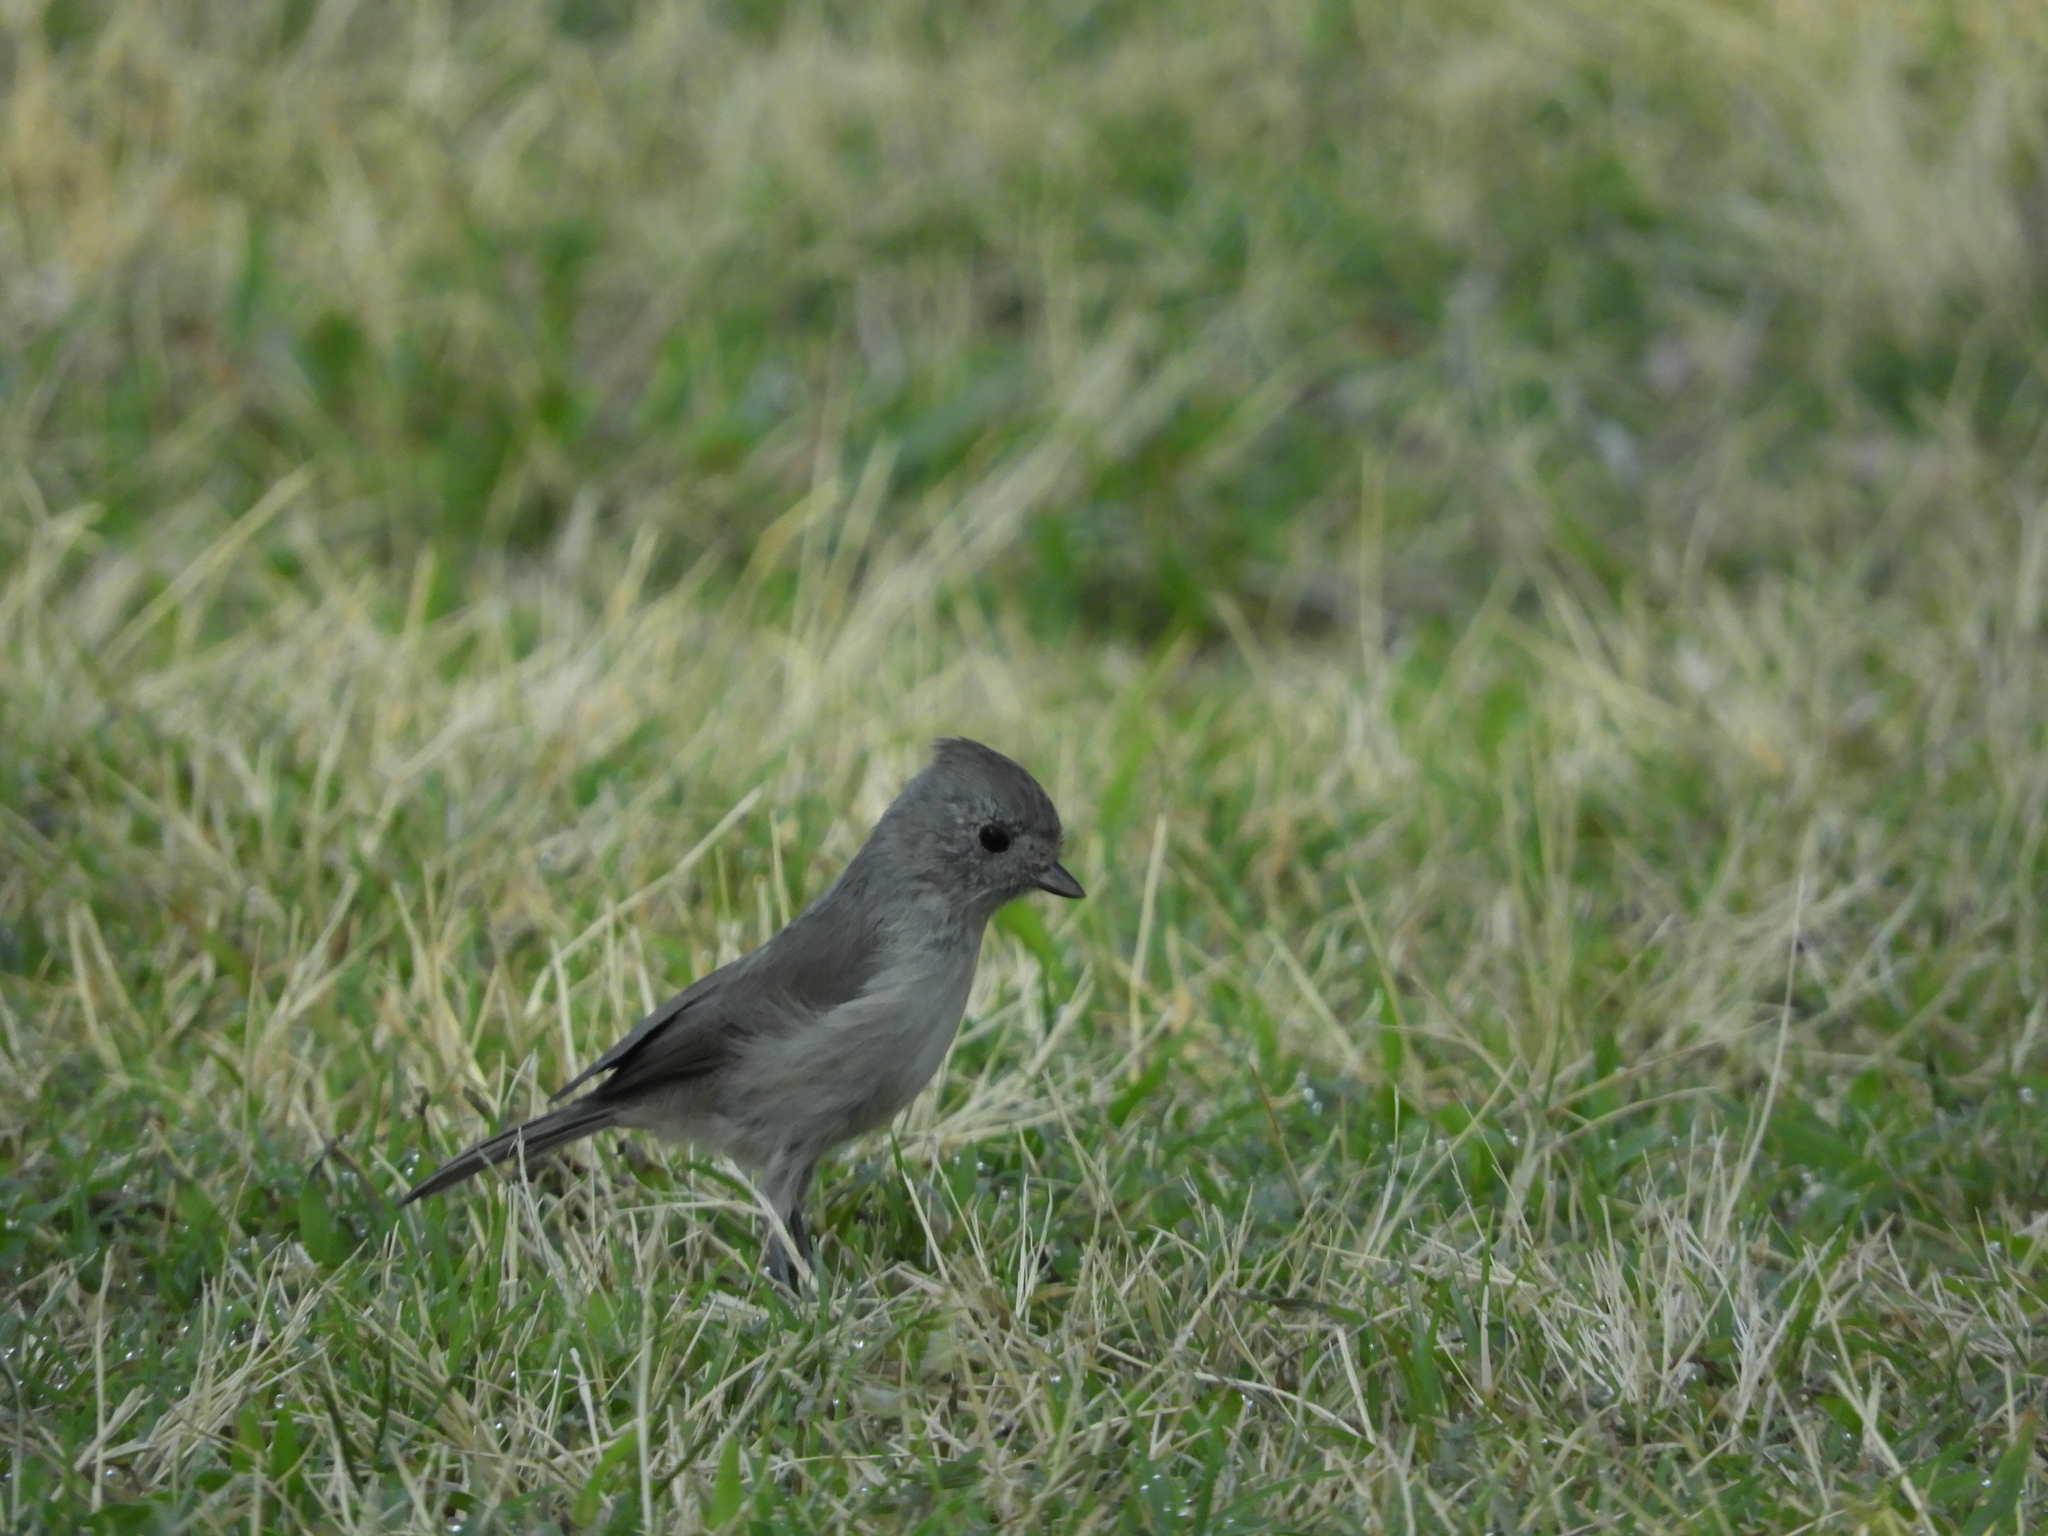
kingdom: Animalia
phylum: Chordata
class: Aves
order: Passeriformes
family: Paridae
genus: Baeolophus
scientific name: Baeolophus inornatus
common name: Oak titmouse
